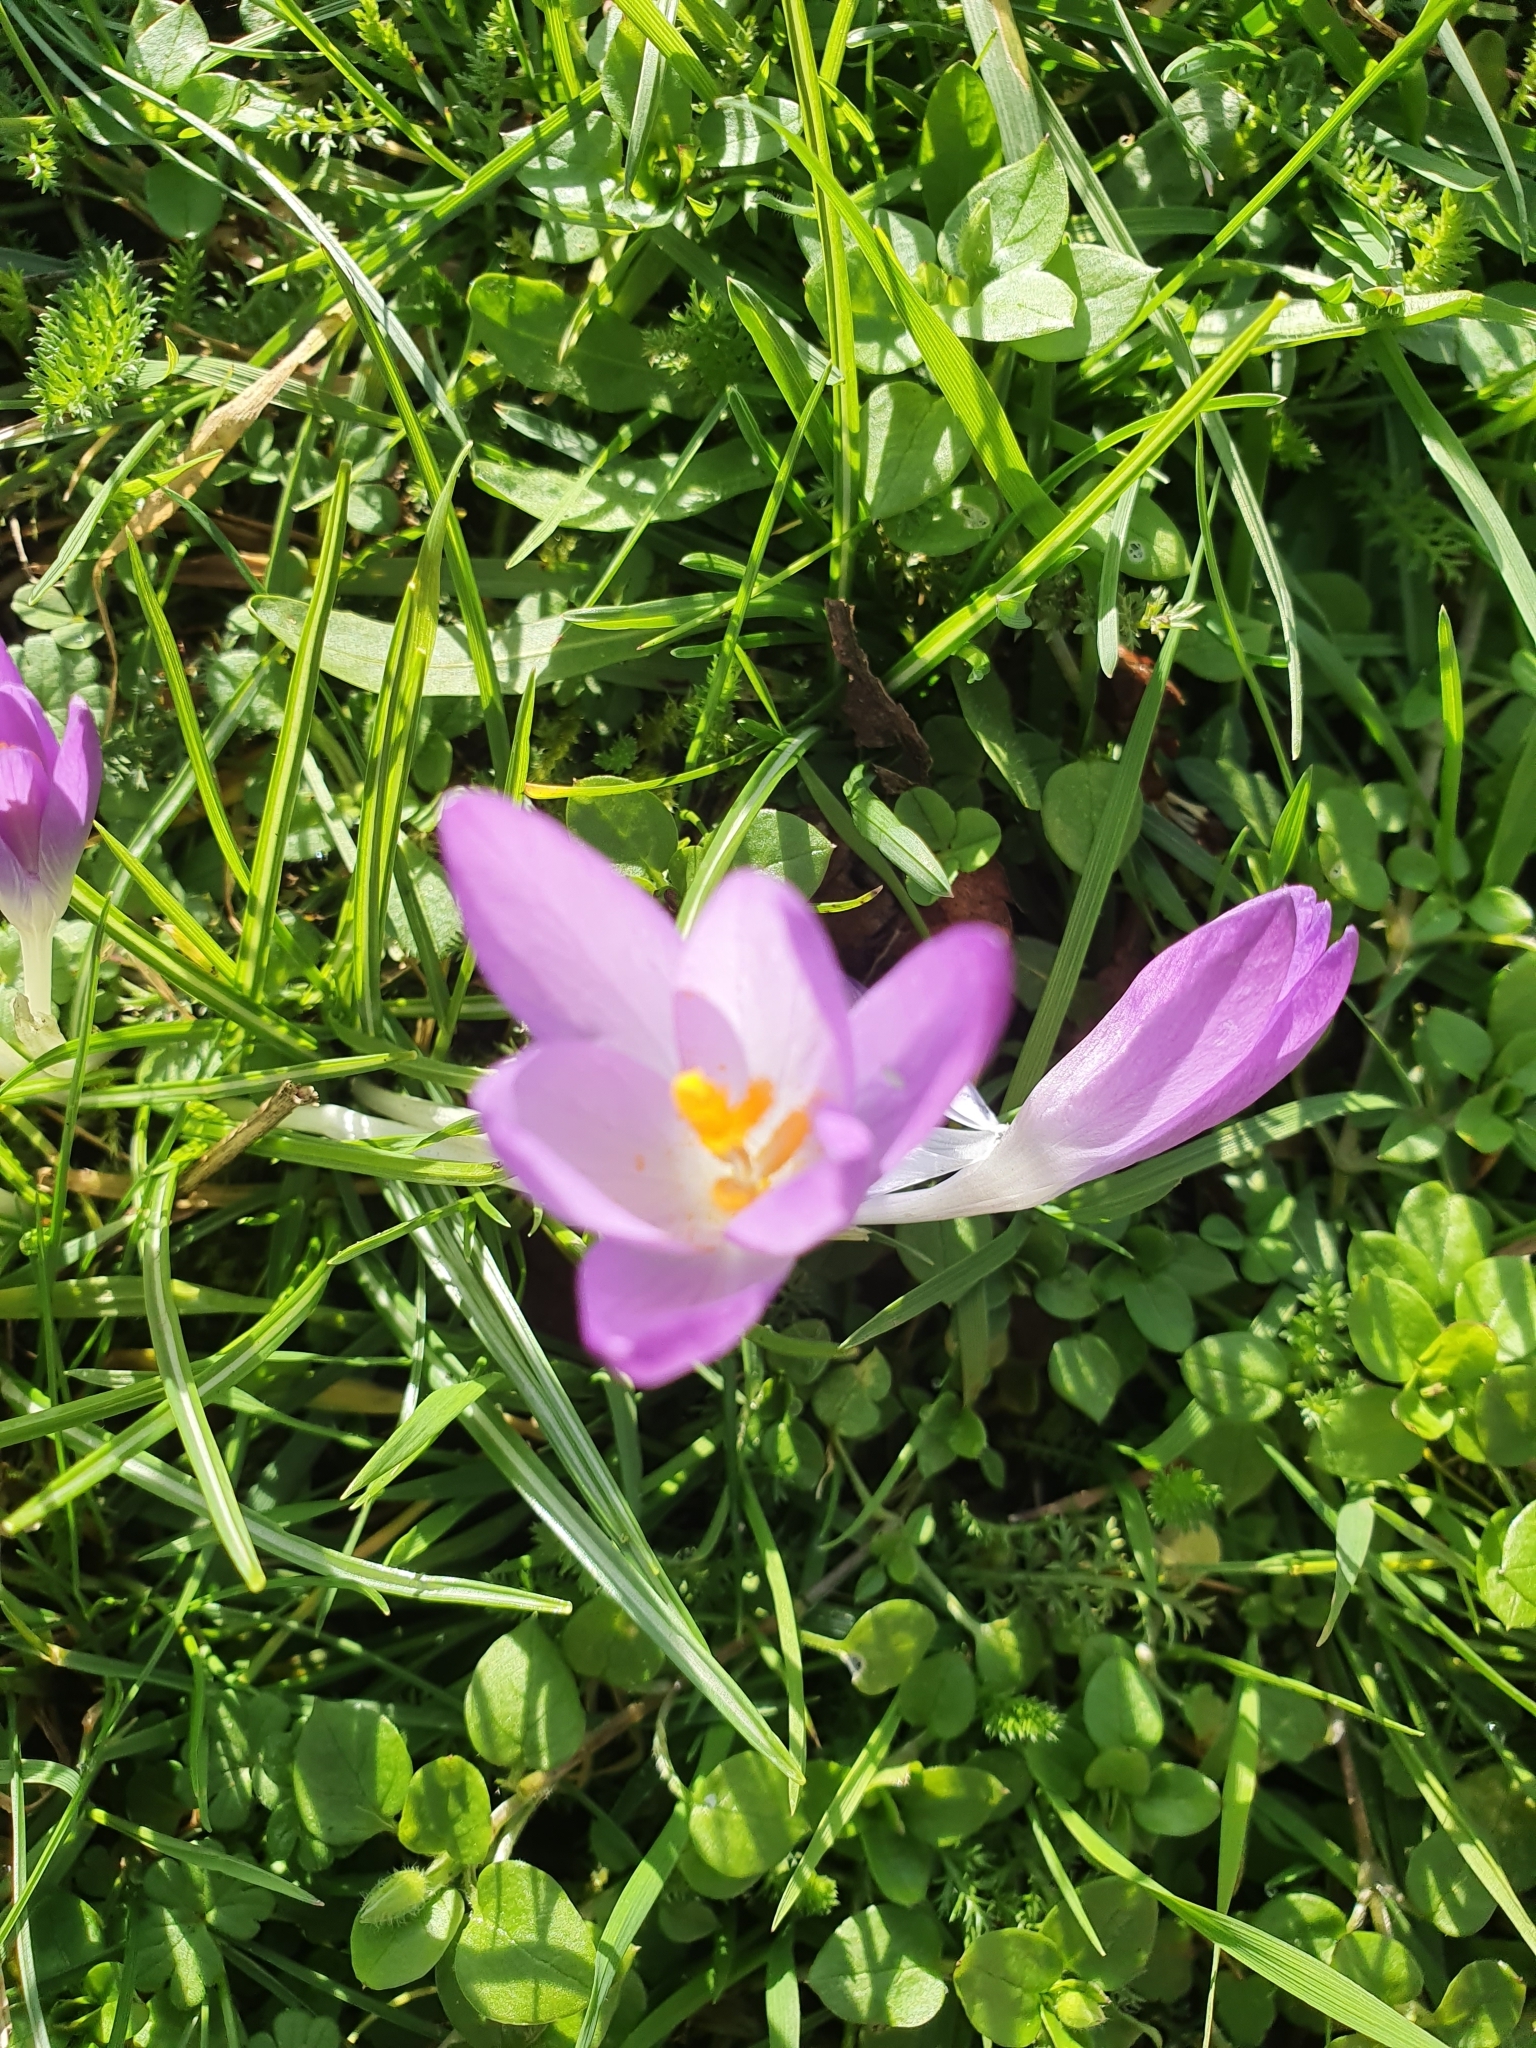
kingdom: Plantae
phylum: Tracheophyta
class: Liliopsida
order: Asparagales
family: Iridaceae
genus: Crocus
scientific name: Crocus tommasinianus
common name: Early crocus
